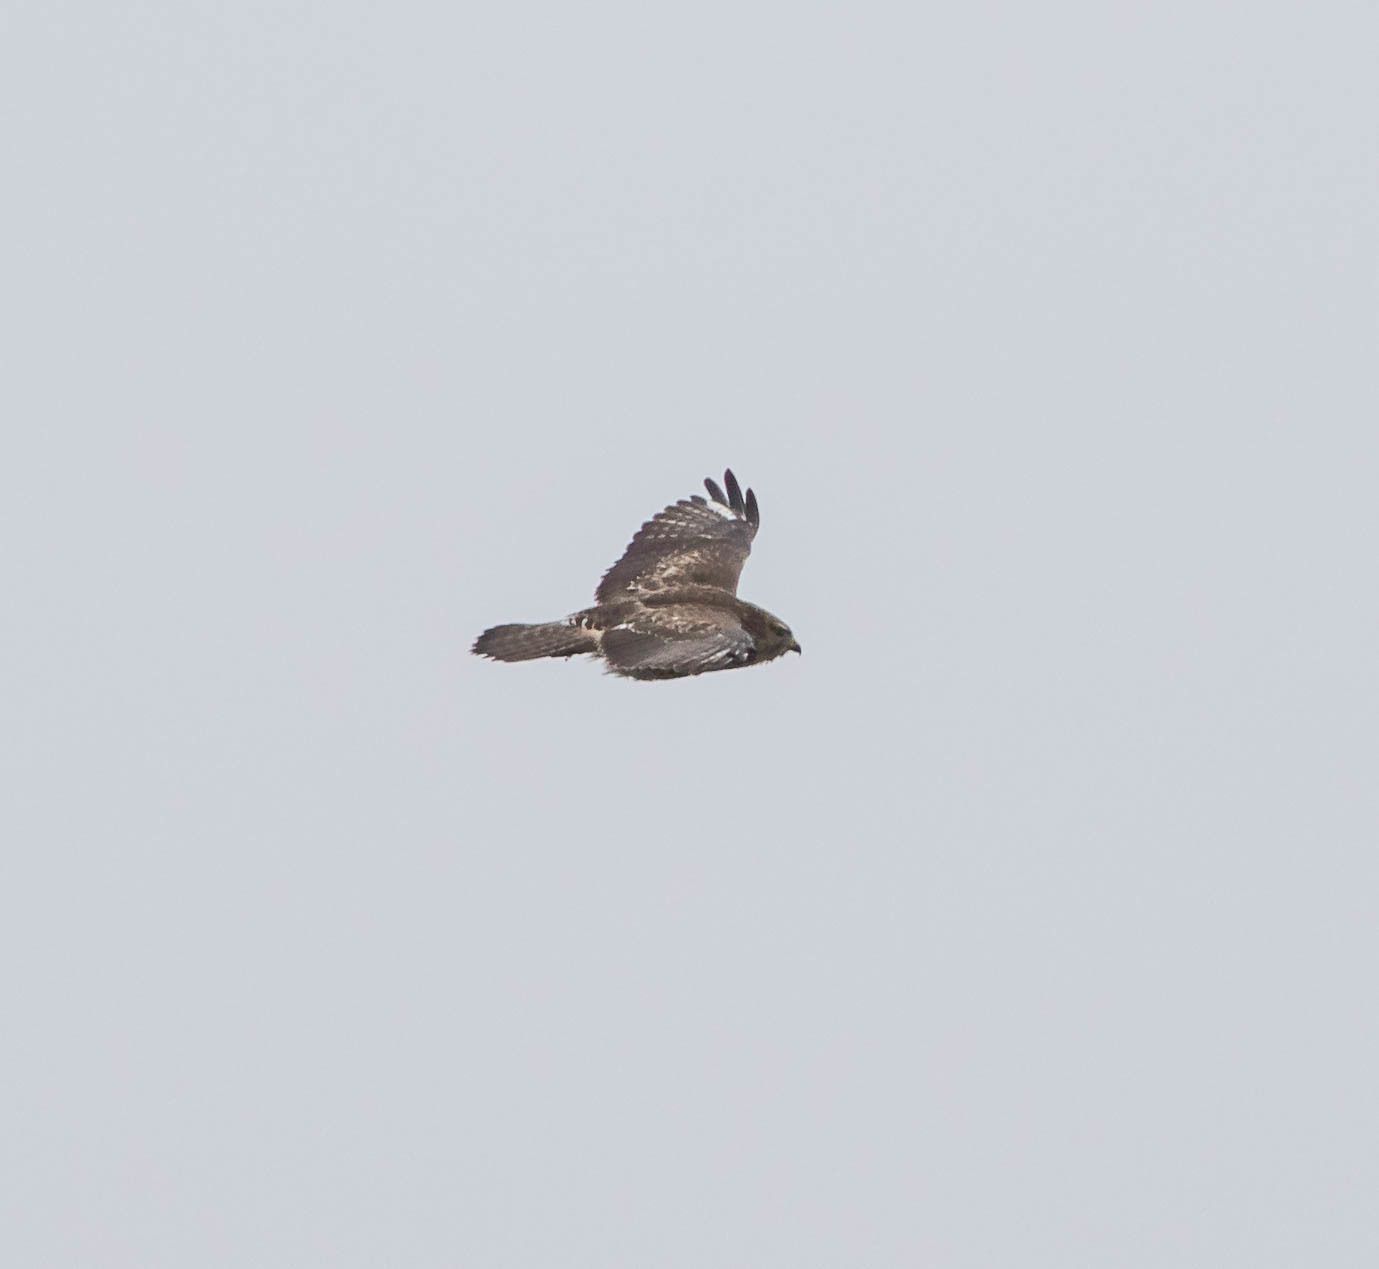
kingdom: Animalia
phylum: Chordata
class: Aves
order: Accipitriformes
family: Accipitridae
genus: Buteo
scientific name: Buteo jamaicensis
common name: Red-tailed hawk
